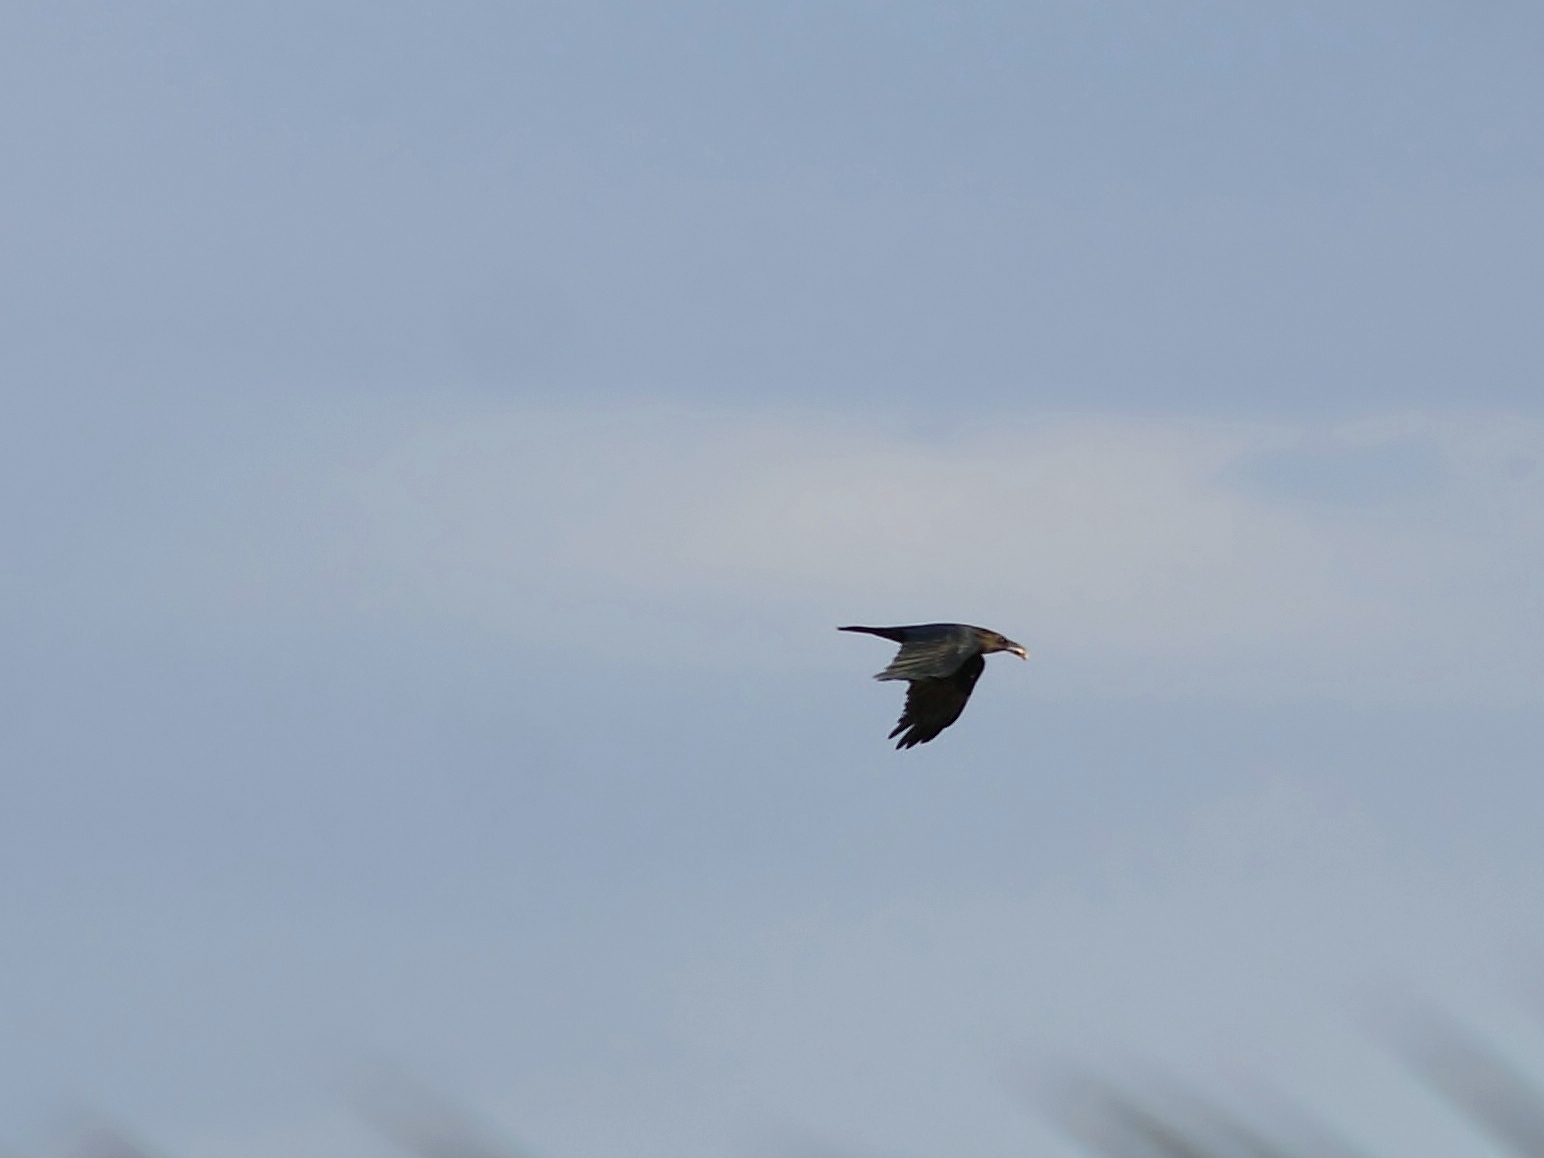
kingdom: Animalia
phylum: Chordata
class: Aves
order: Passeriformes
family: Corvidae
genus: Corvus
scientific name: Corvus ruficollis
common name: Brown-necked raven
